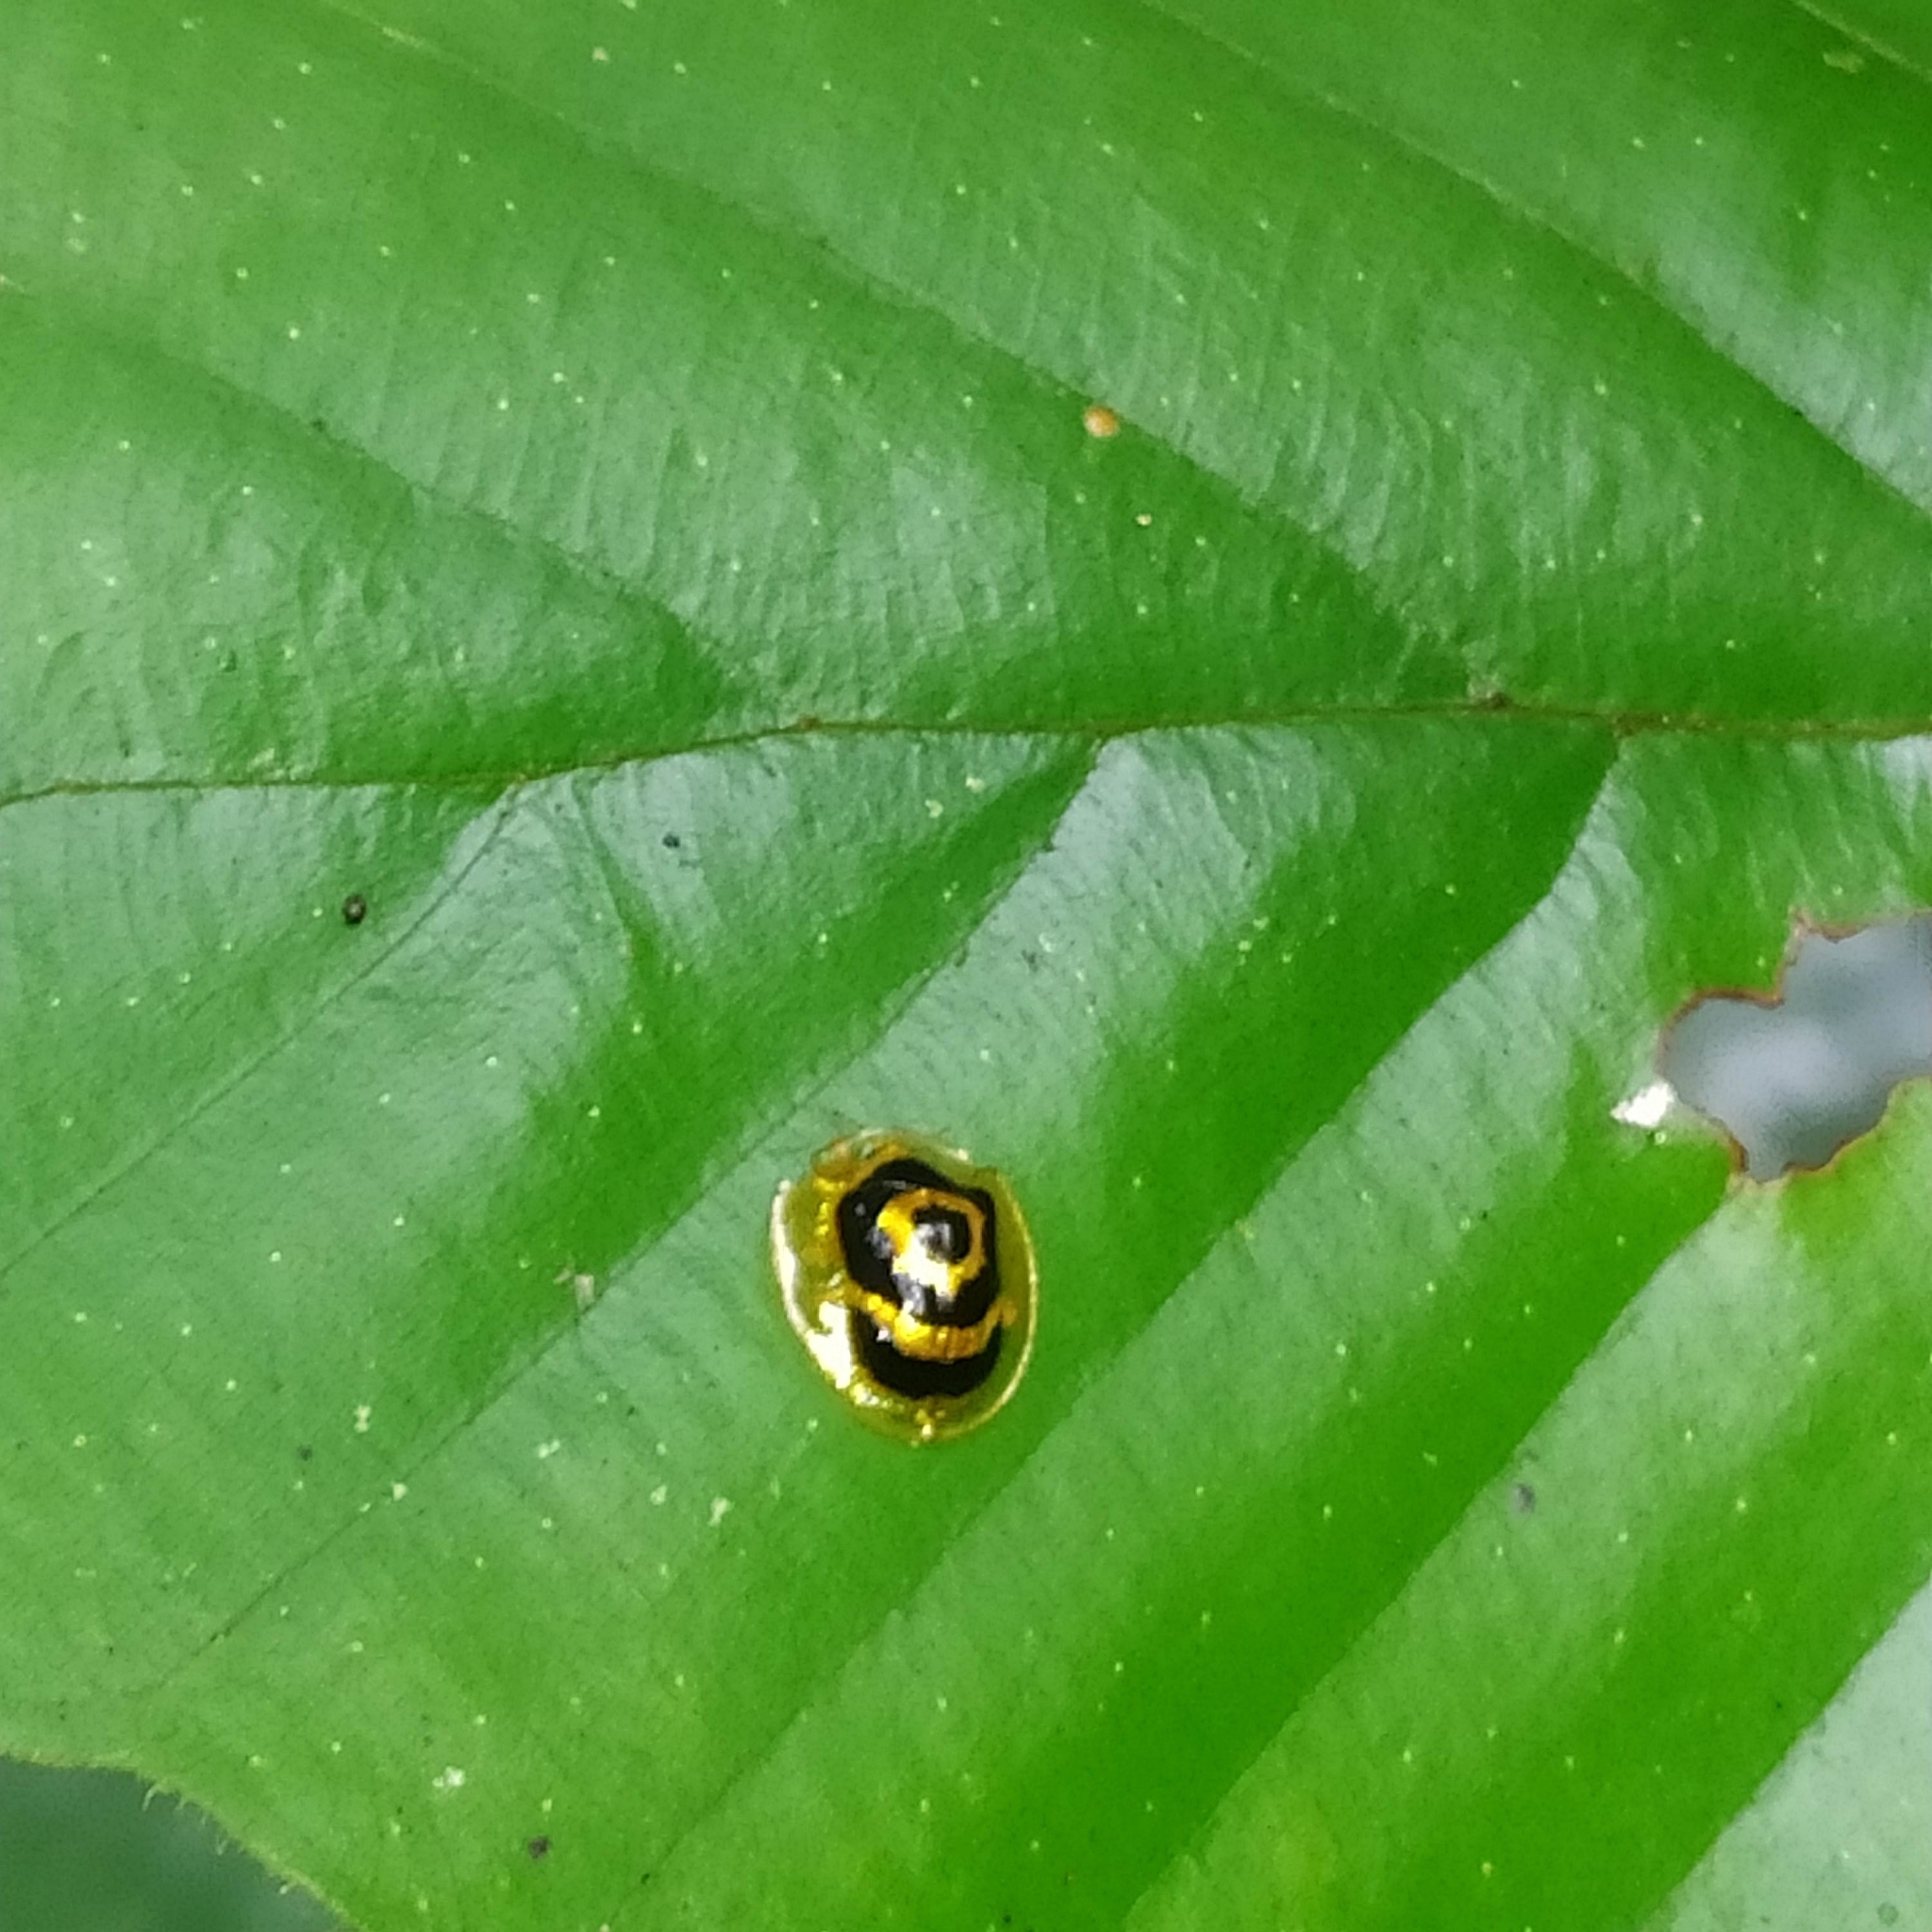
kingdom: Animalia
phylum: Arthropoda
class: Insecta
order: Coleoptera
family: Chrysomelidae
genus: Ischnocodia
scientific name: Ischnocodia annulus
